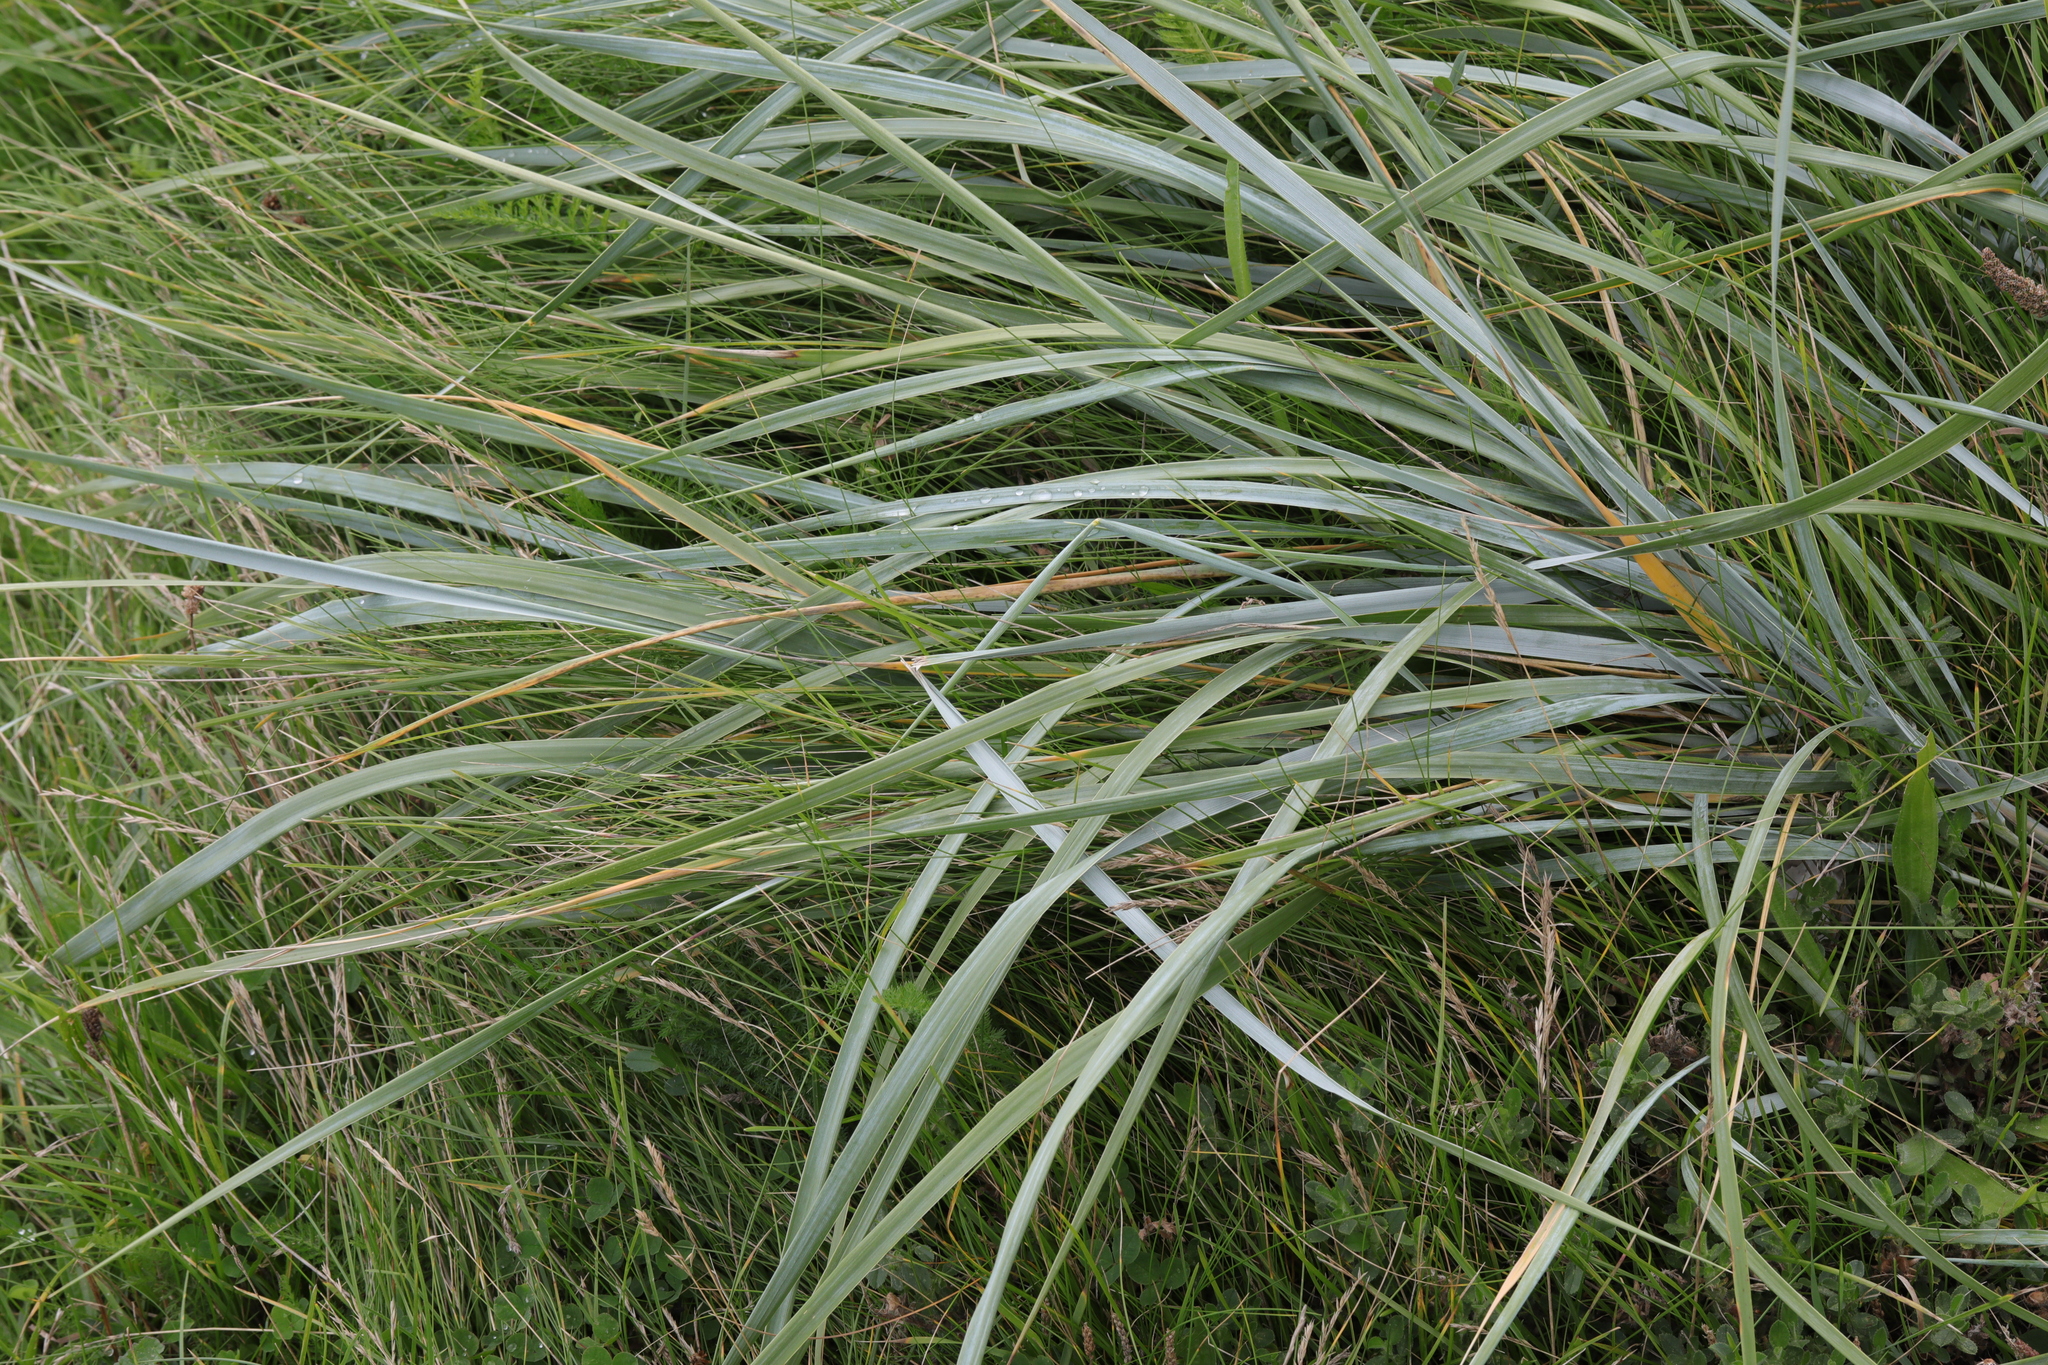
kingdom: Plantae
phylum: Tracheophyta
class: Liliopsida
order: Poales
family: Poaceae
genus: Leymus
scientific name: Leymus arenarius
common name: Lyme-grass
